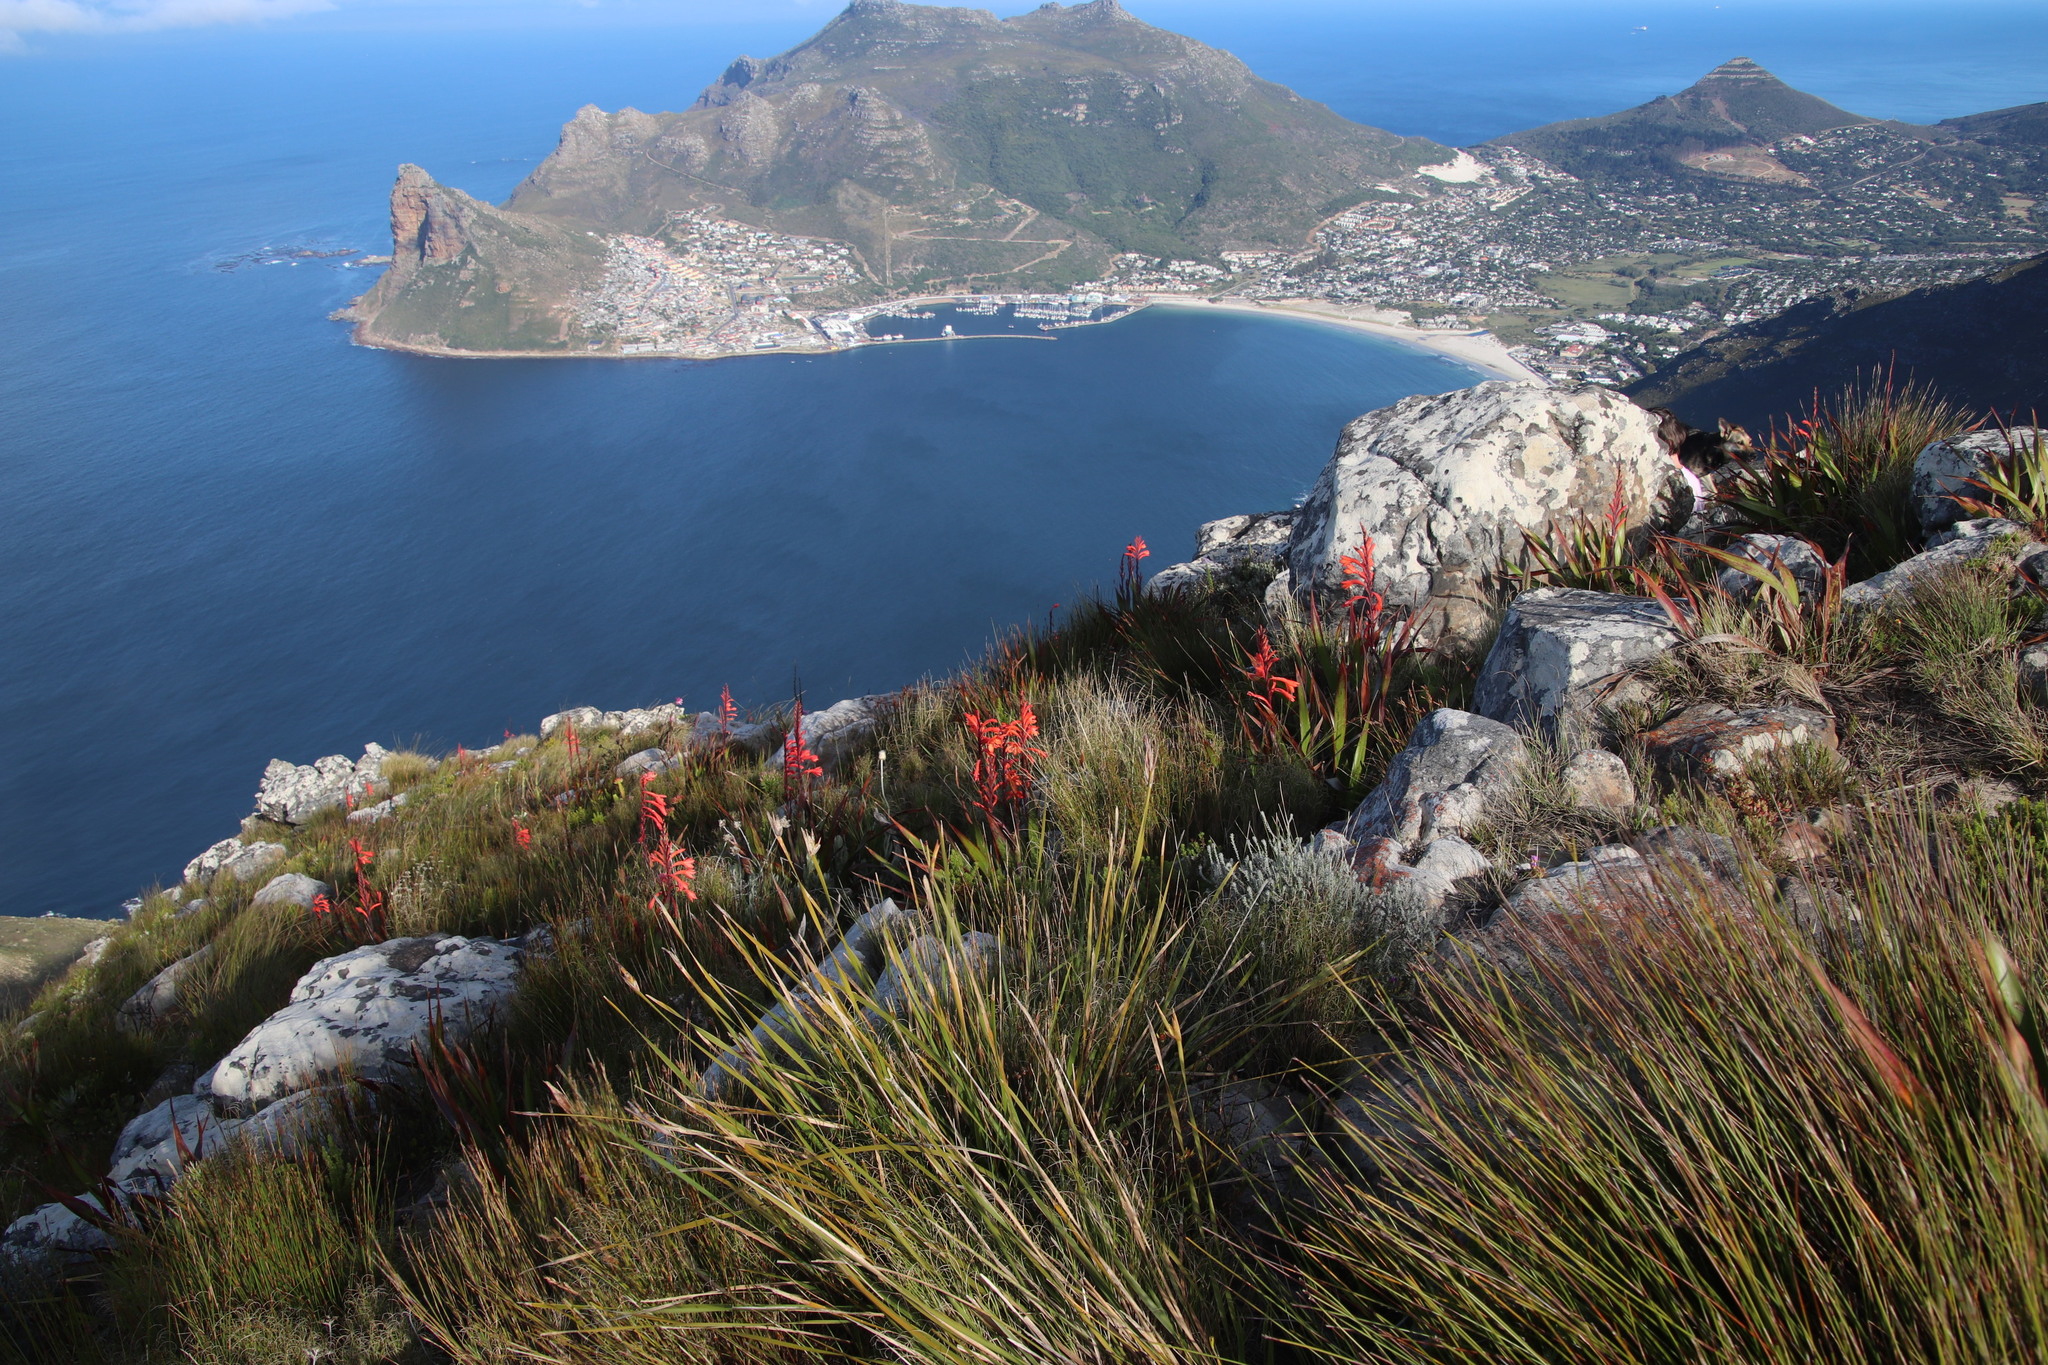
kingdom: Plantae
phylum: Tracheophyta
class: Liliopsida
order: Asparagales
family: Iridaceae
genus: Watsonia
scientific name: Watsonia tabularis
